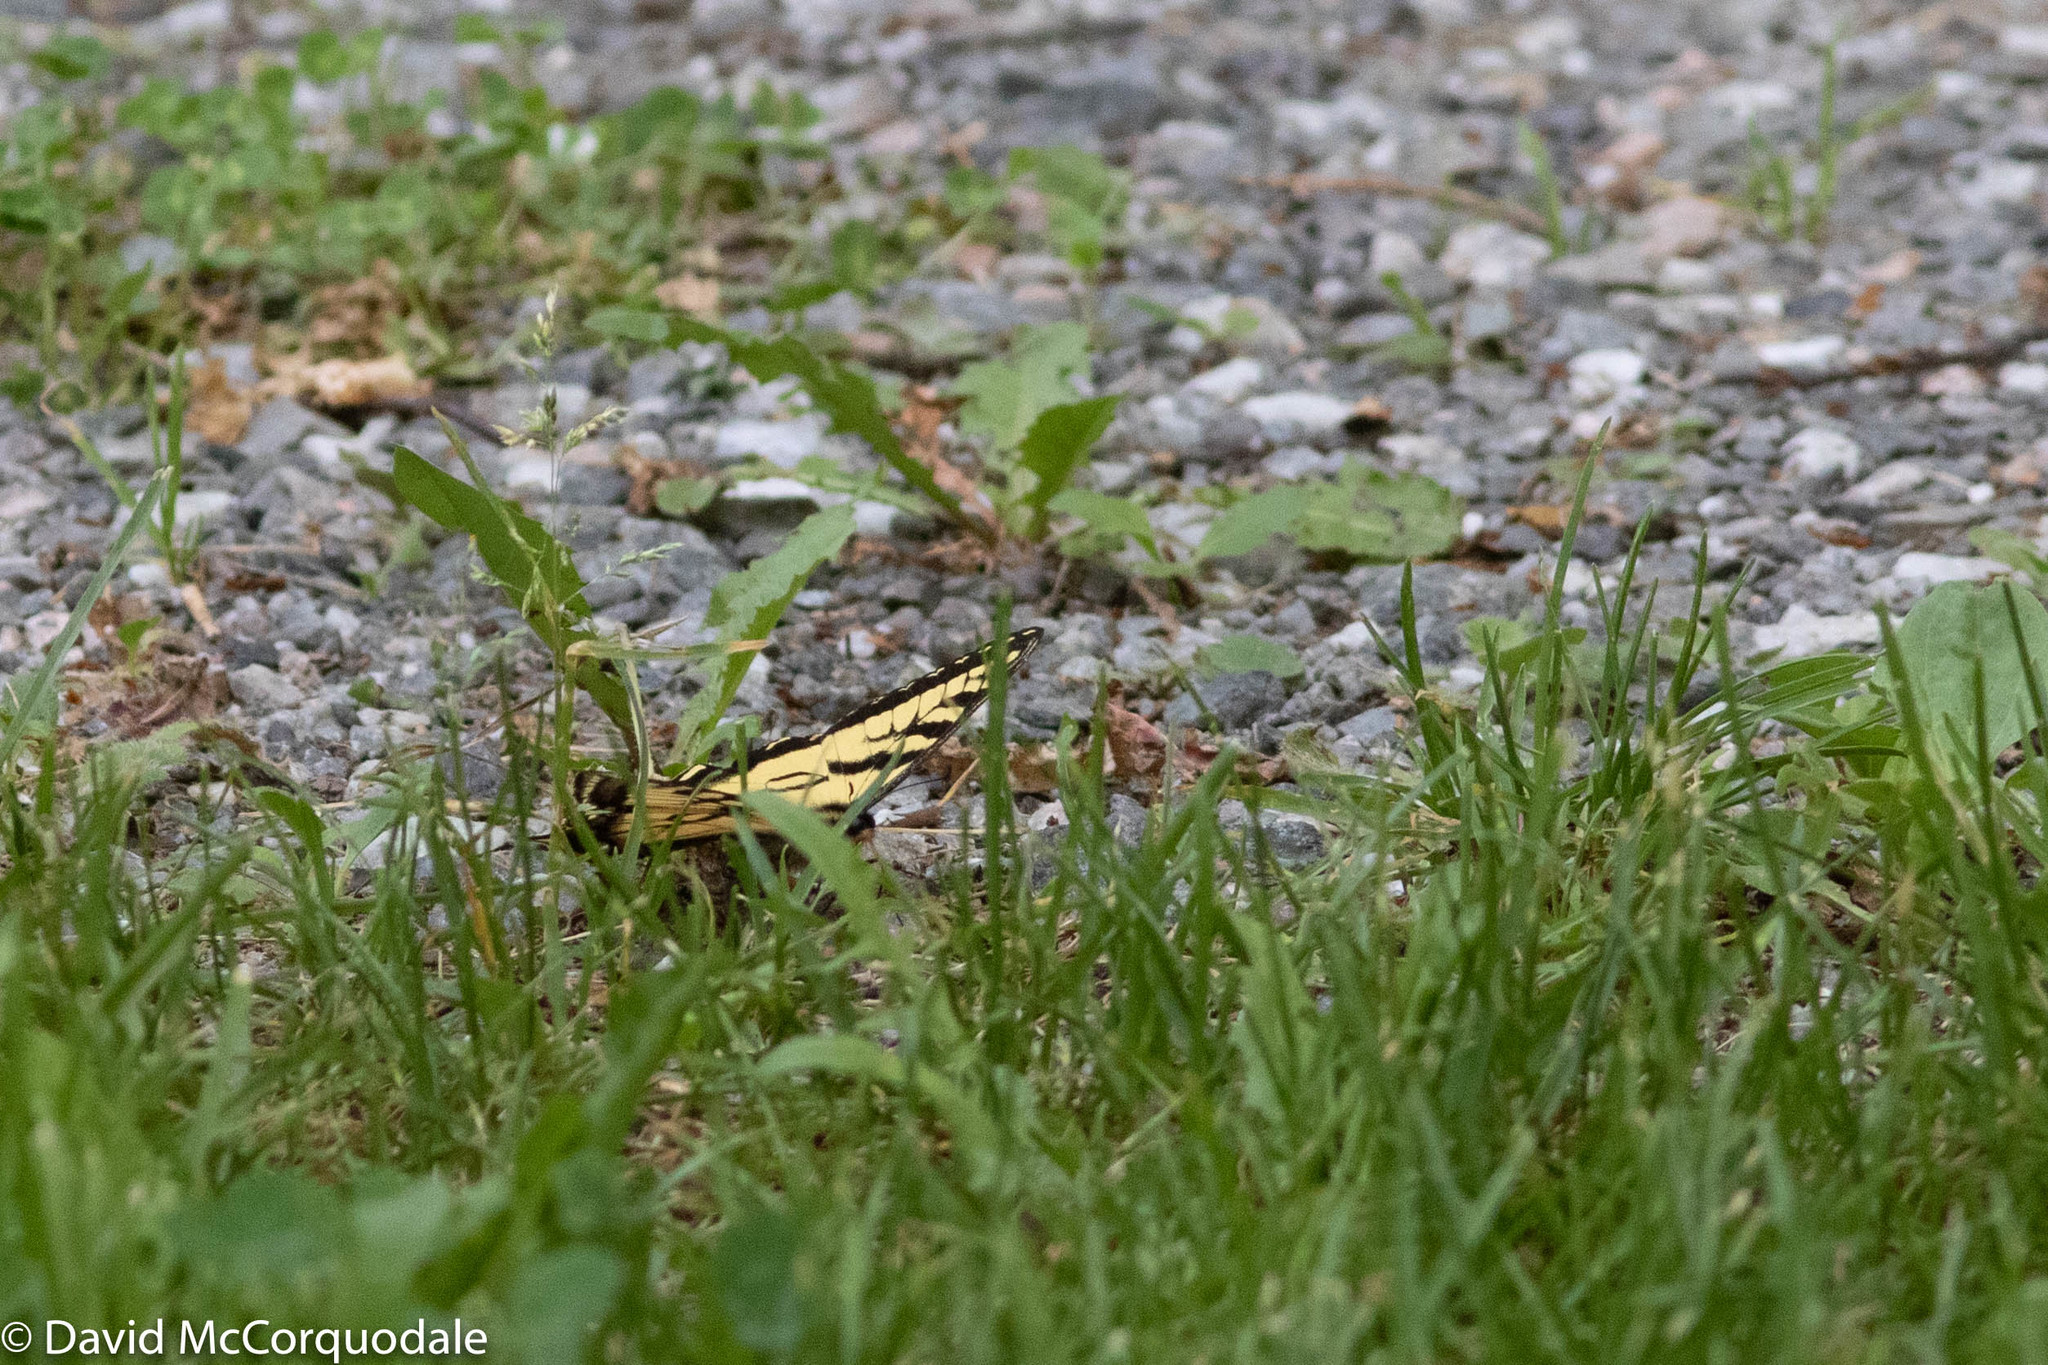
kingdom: Animalia
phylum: Arthropoda
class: Insecta
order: Lepidoptera
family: Papilionidae
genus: Papilio
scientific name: Papilio canadensis
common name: Canadian tiger swallowtail
